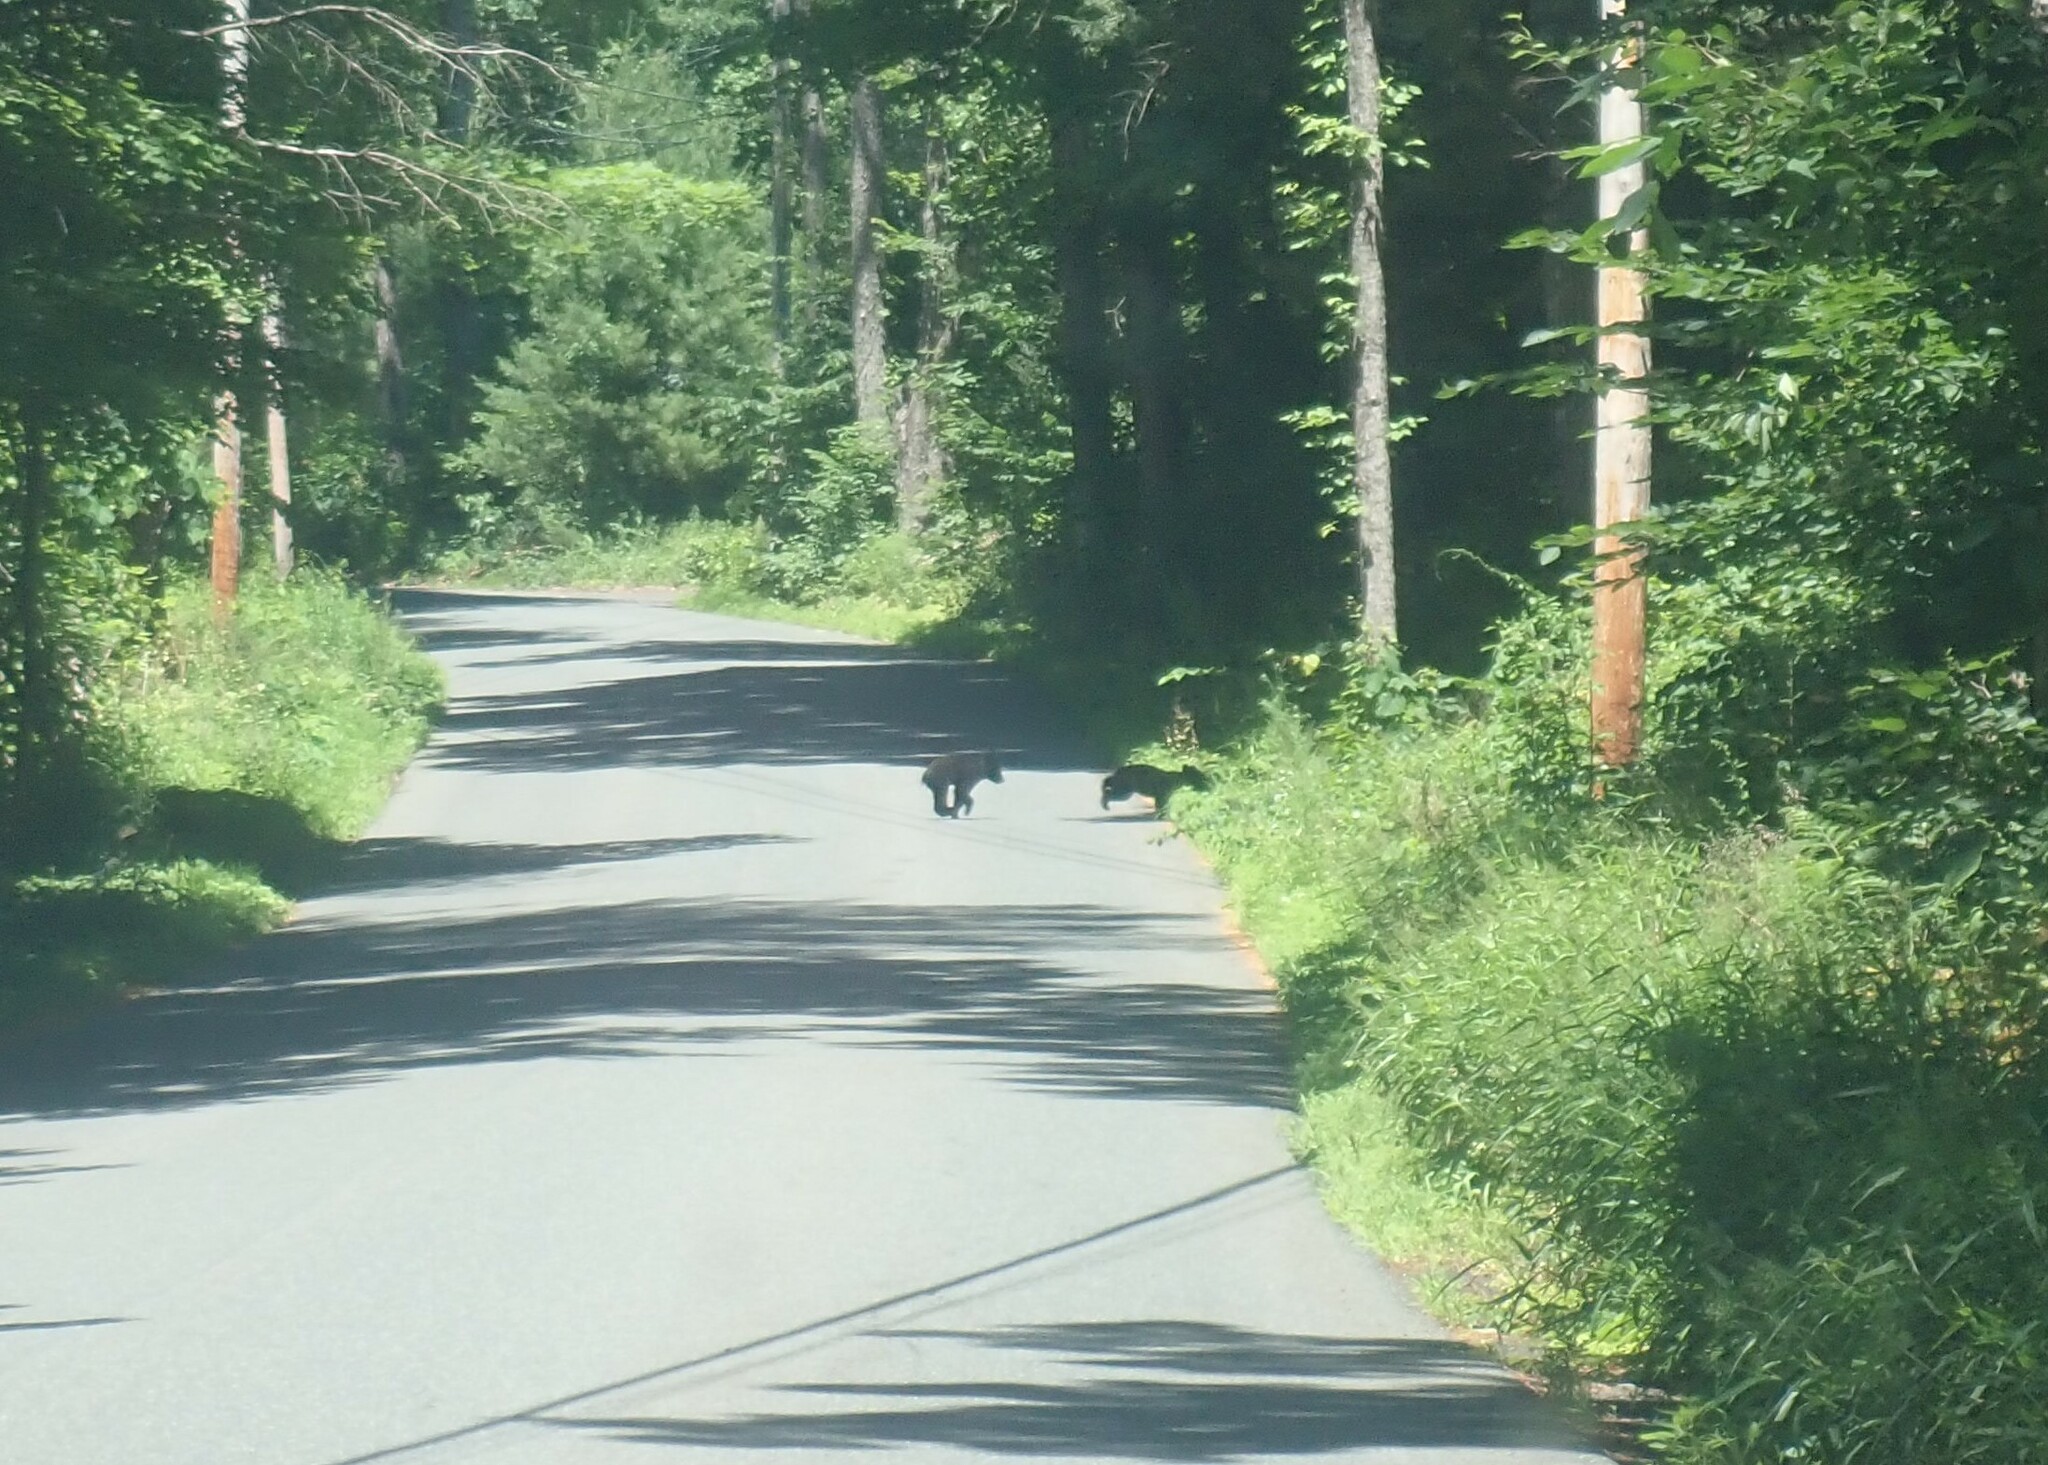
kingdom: Animalia
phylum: Chordata
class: Mammalia
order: Carnivora
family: Ursidae
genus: Ursus
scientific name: Ursus americanus
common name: American black bear
